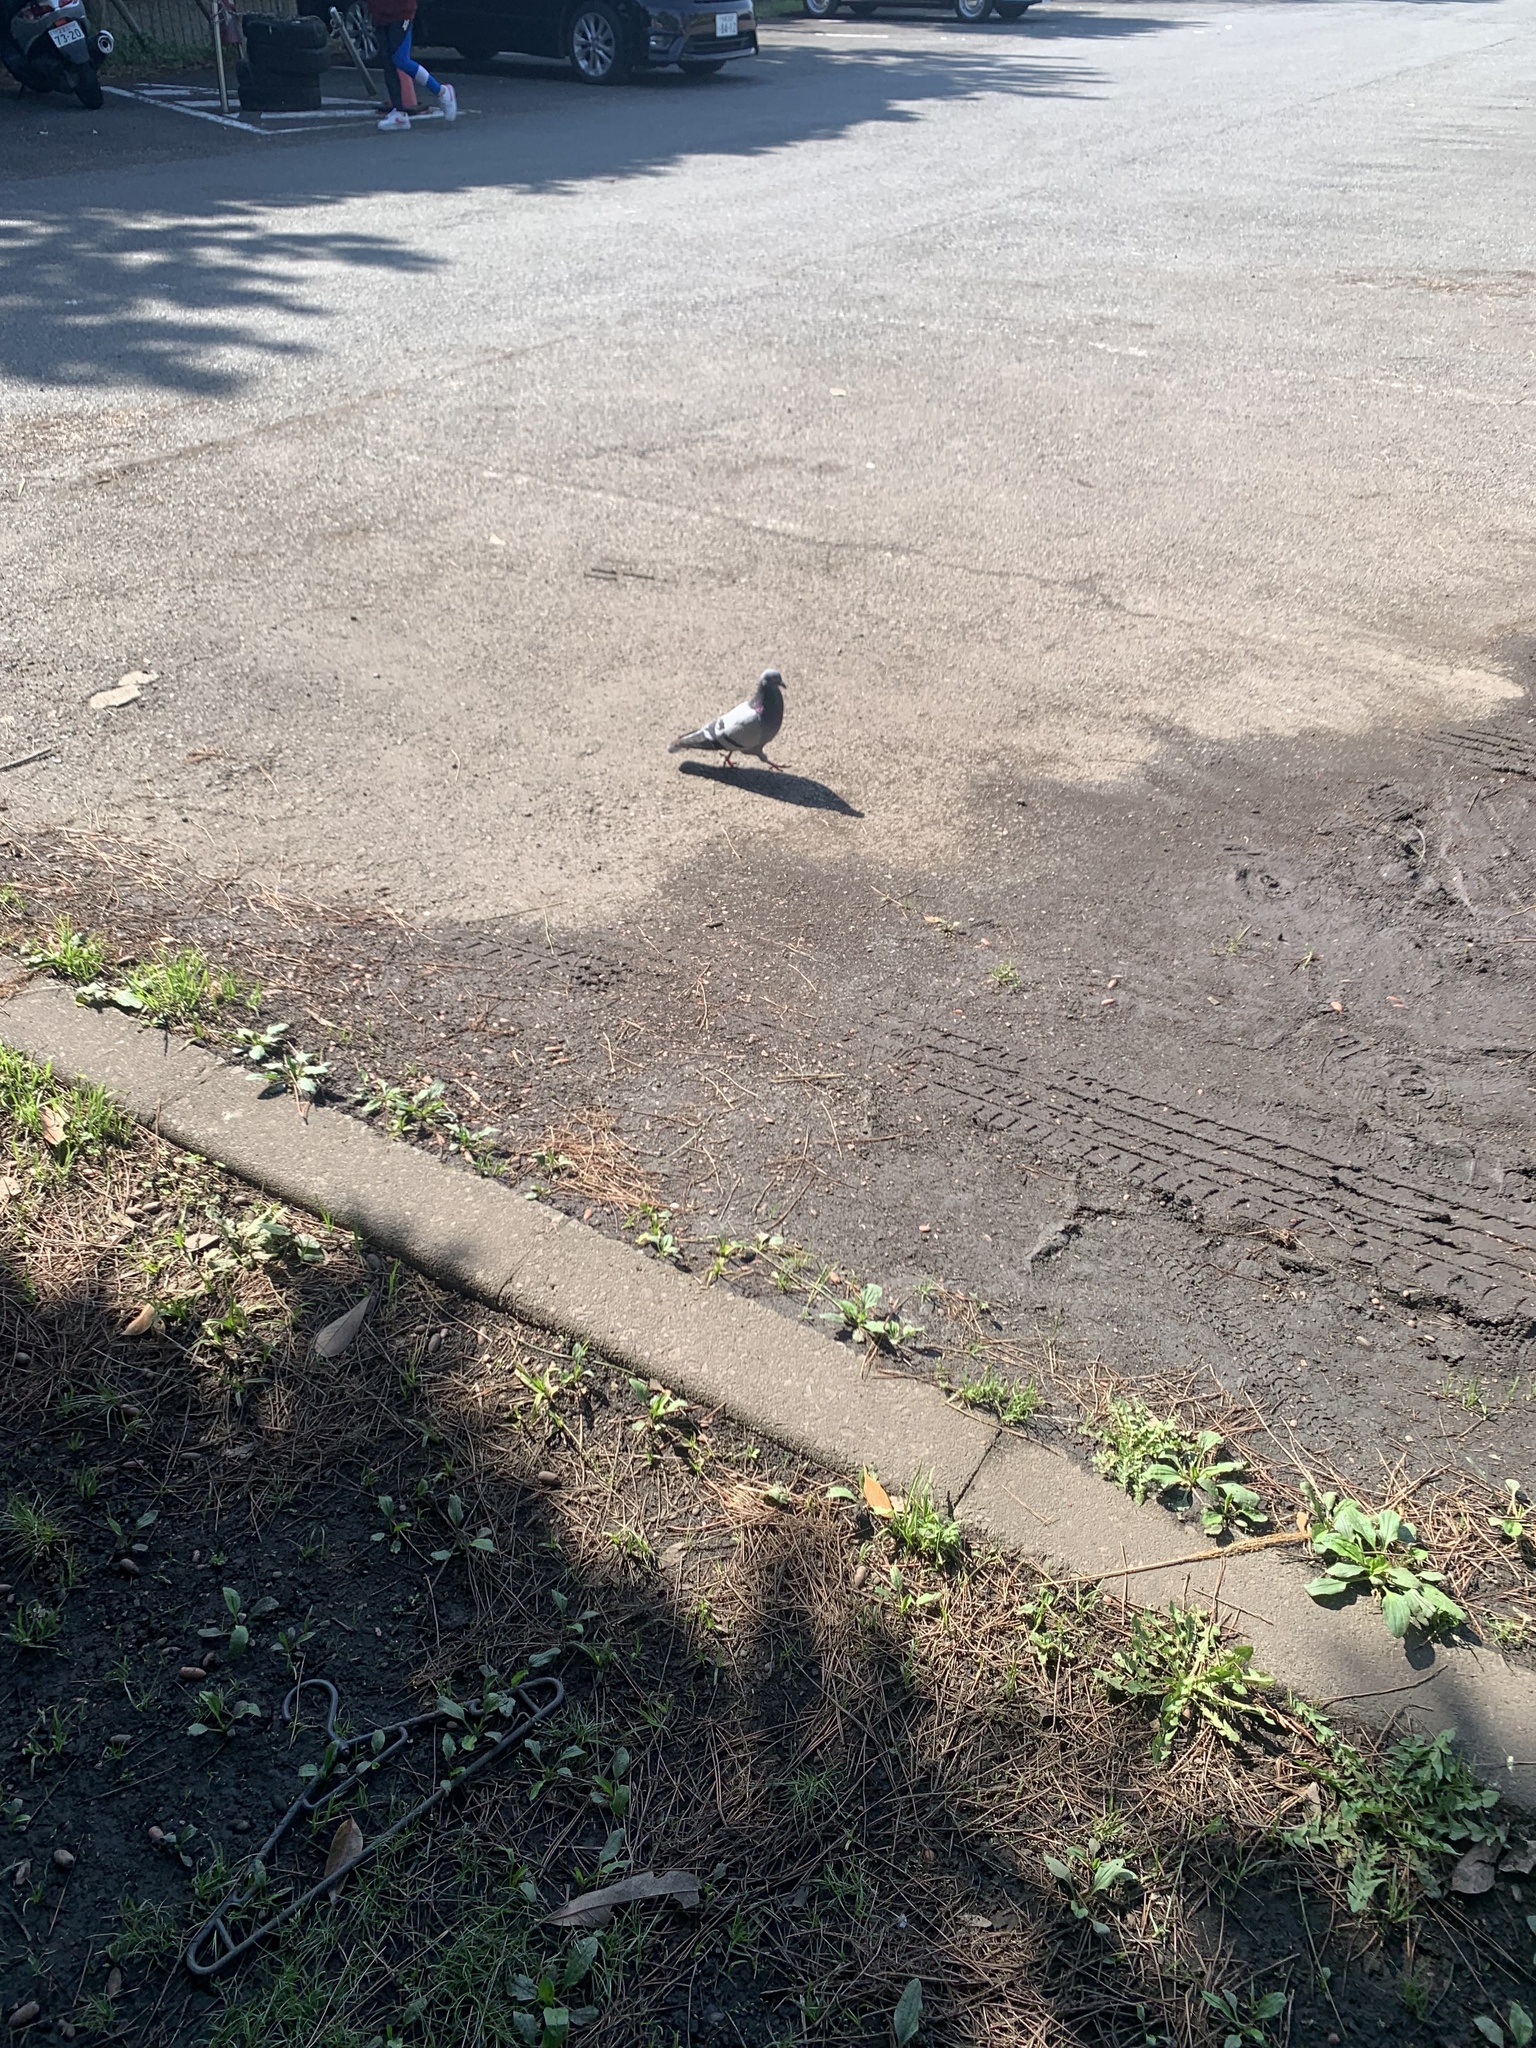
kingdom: Animalia
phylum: Chordata
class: Aves
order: Columbiformes
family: Columbidae
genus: Columba
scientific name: Columba livia
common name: Rock pigeon
